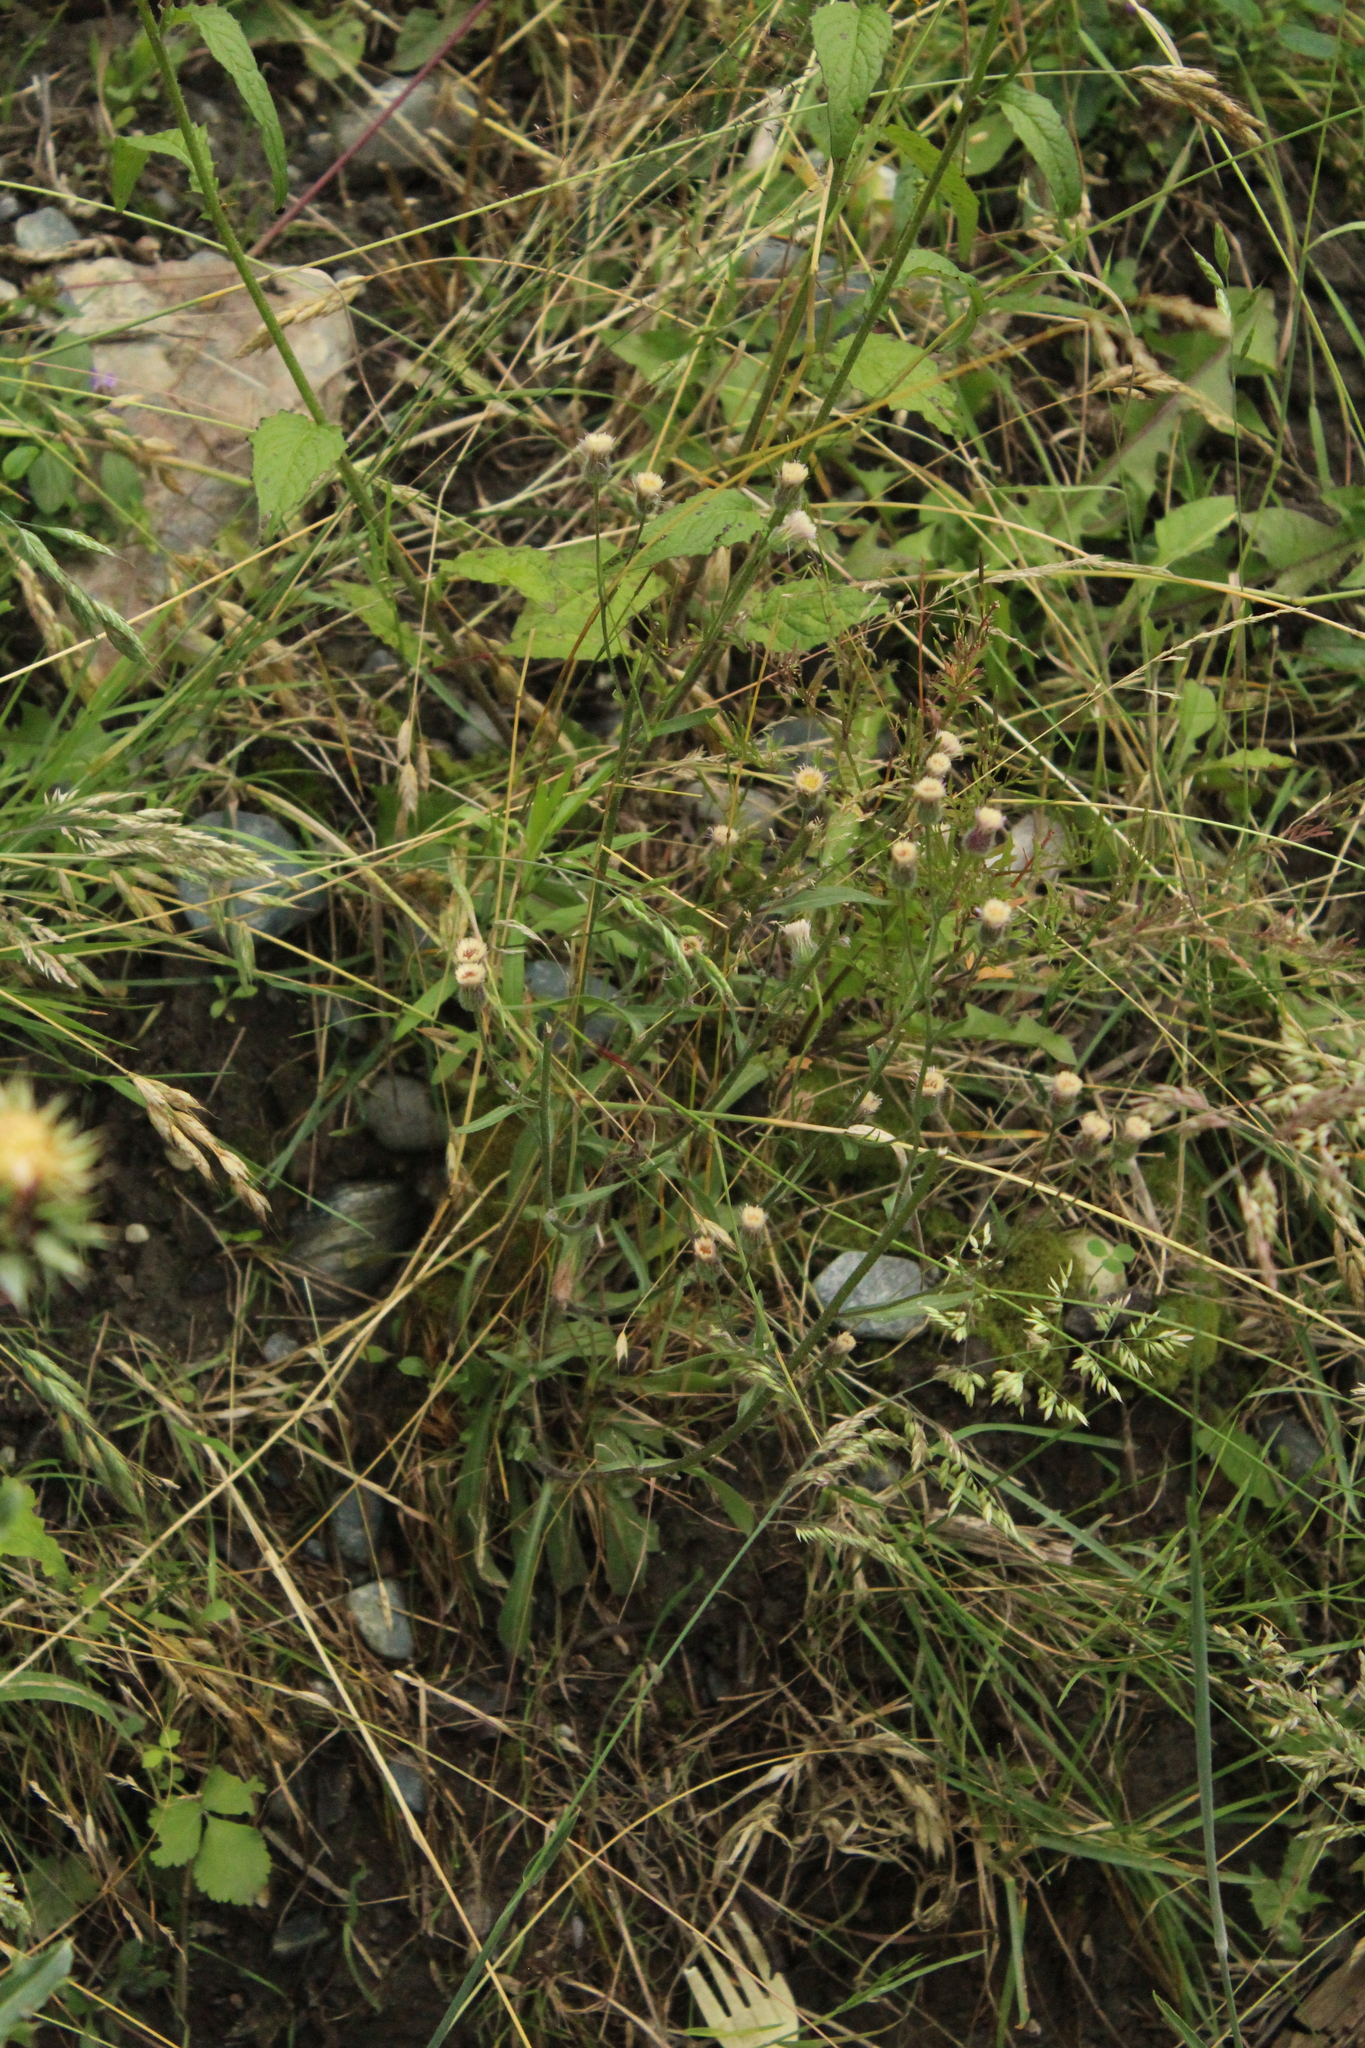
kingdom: Plantae
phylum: Tracheophyta
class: Magnoliopsida
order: Asterales
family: Asteraceae
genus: Erigeron
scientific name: Erigeron acris
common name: Blue fleabane
